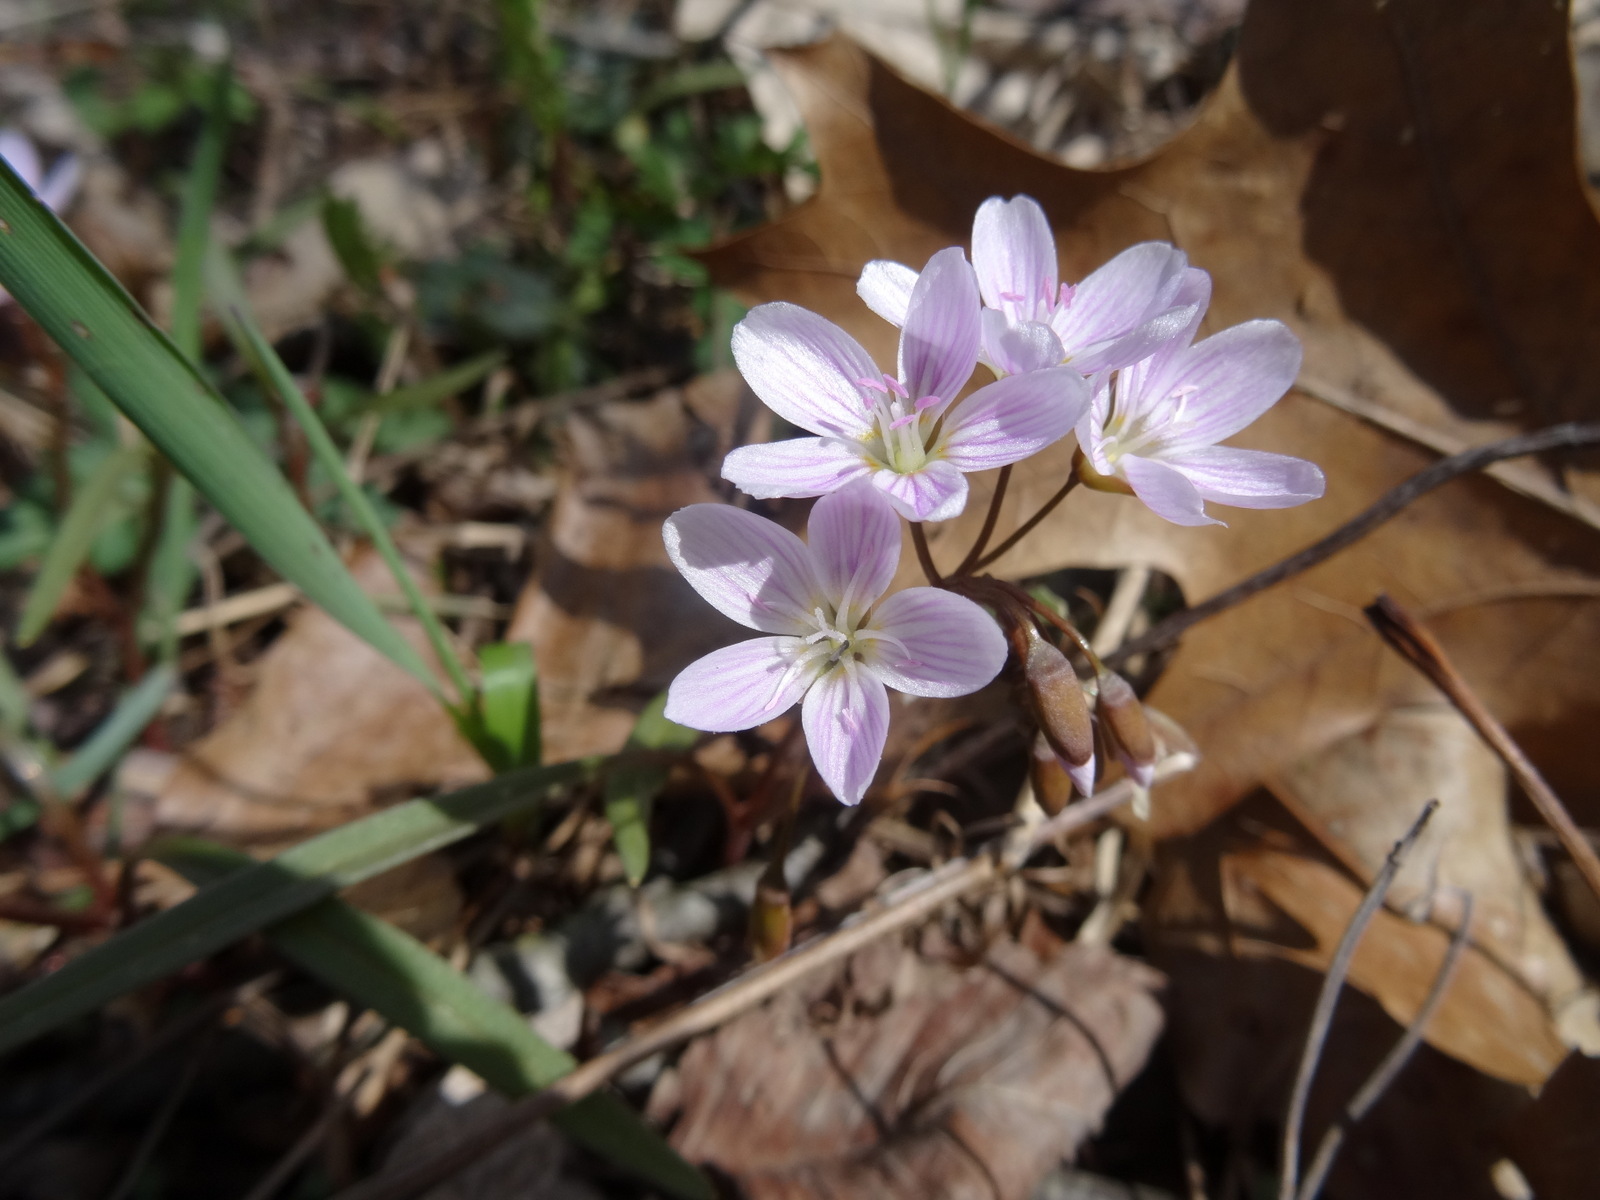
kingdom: Plantae
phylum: Tracheophyta
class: Magnoliopsida
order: Caryophyllales
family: Montiaceae
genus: Claytonia
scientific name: Claytonia virginica
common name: Virginia springbeauty
